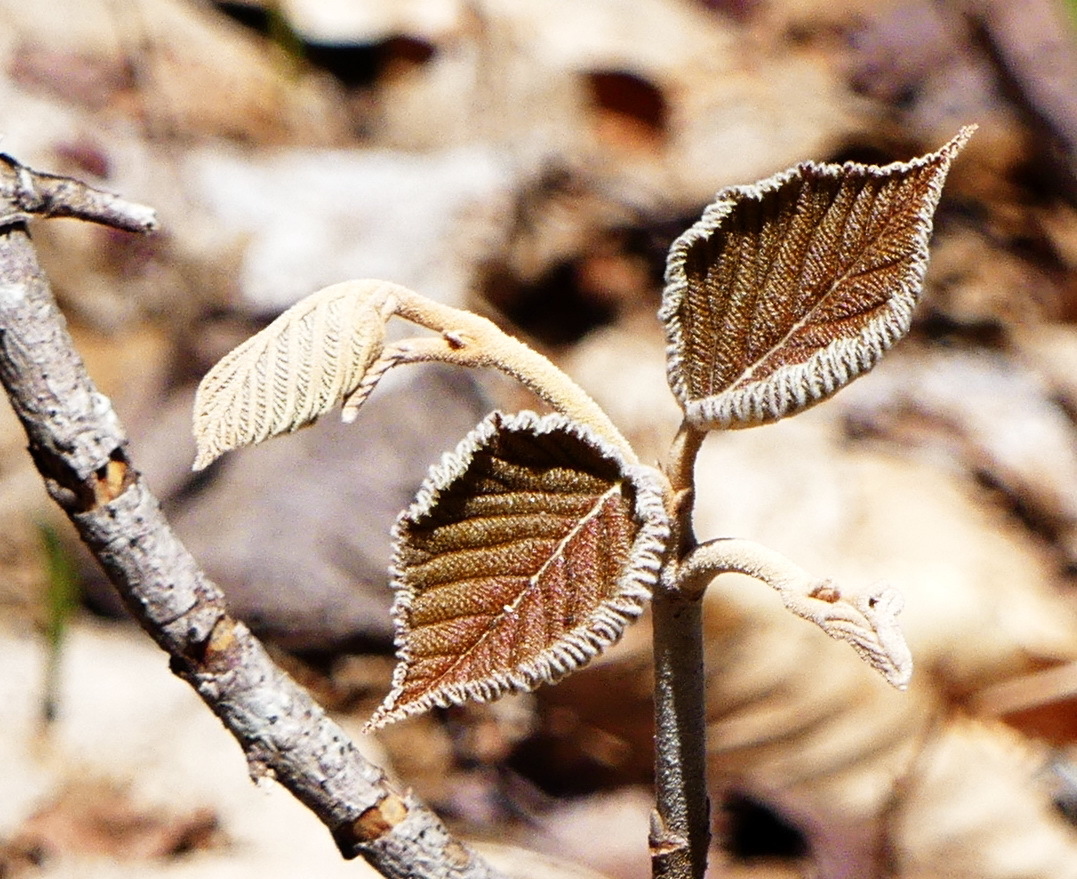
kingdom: Plantae
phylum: Tracheophyta
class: Magnoliopsida
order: Dipsacales
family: Viburnaceae
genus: Viburnum
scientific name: Viburnum lantanoides
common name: Hobblebush
